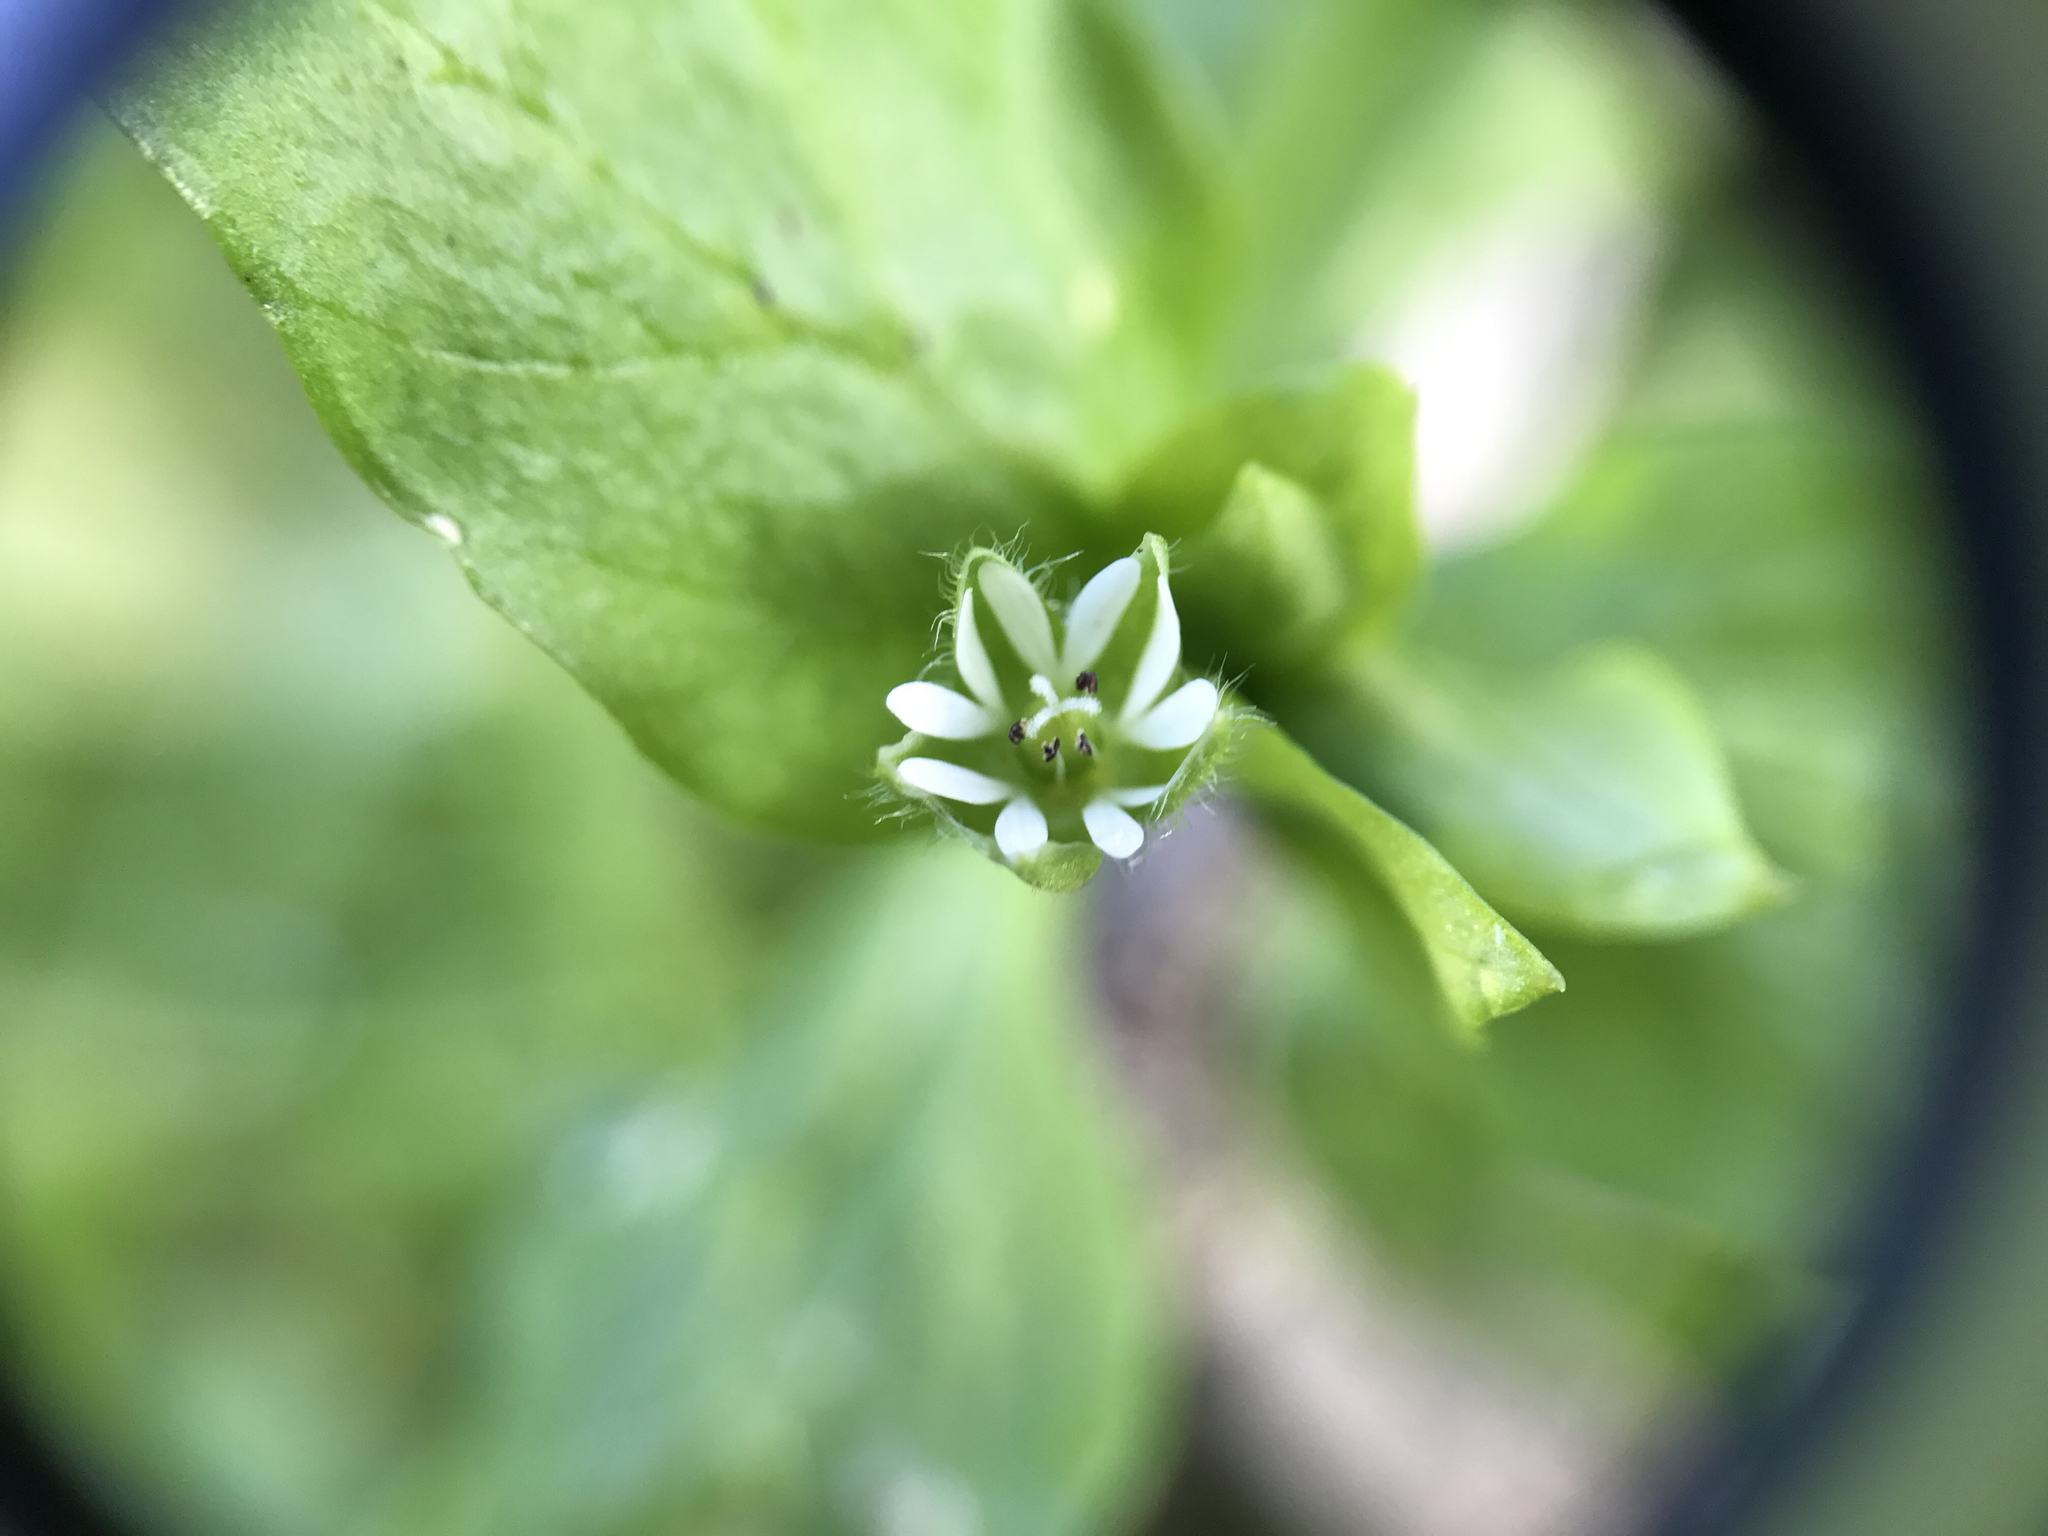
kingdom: Plantae
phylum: Tracheophyta
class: Magnoliopsida
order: Caryophyllales
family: Caryophyllaceae
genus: Stellaria
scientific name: Stellaria media
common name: Common chickweed
